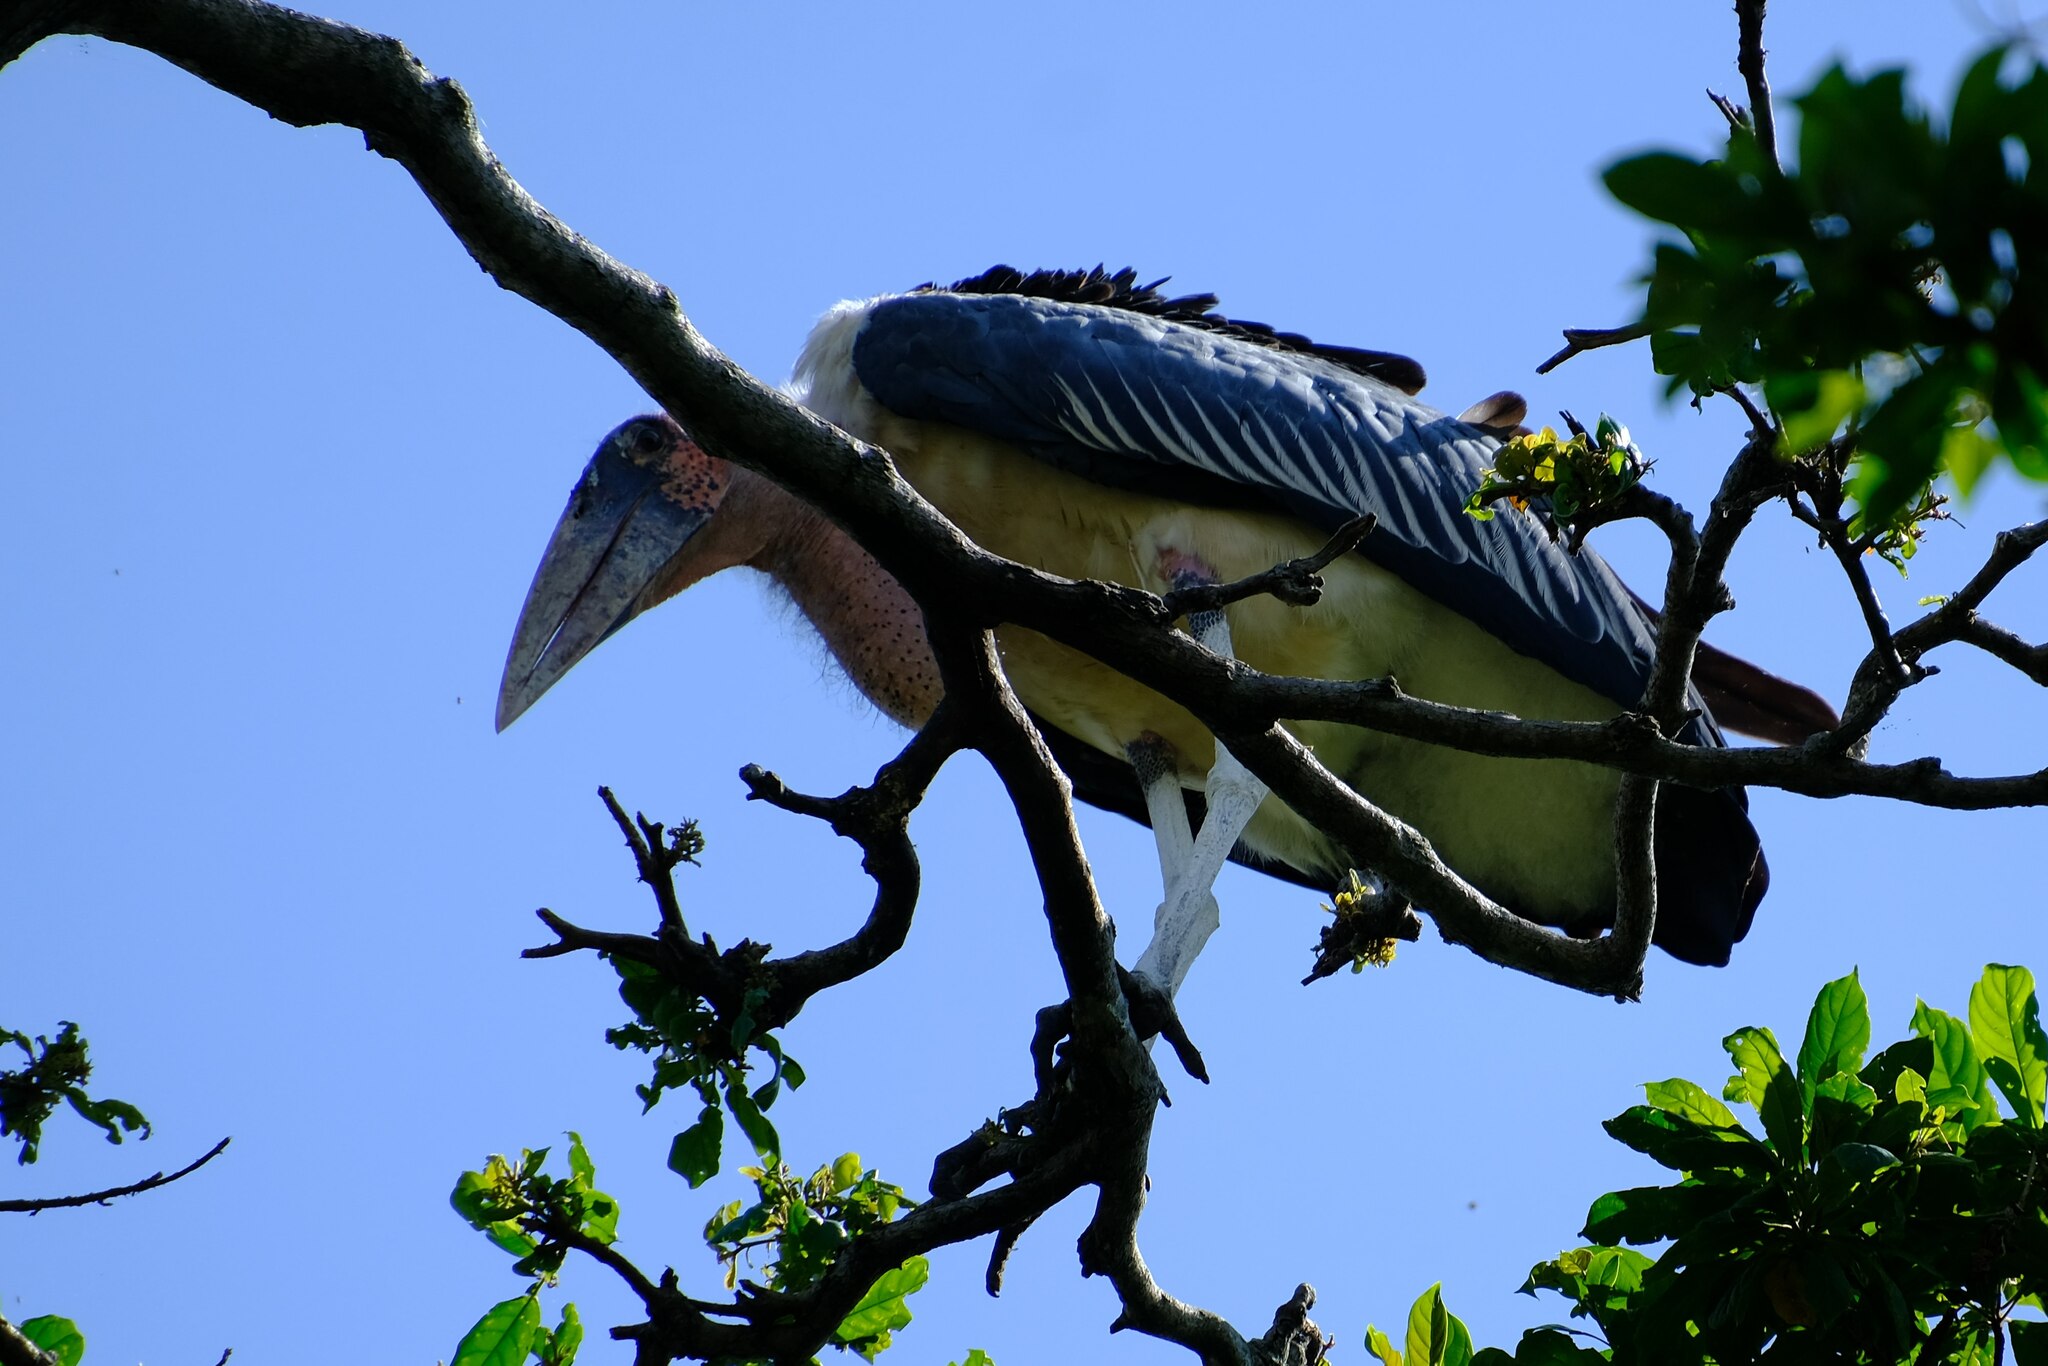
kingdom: Animalia
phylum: Chordata
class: Aves
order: Ciconiiformes
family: Ciconiidae
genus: Leptoptilos
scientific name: Leptoptilos crumenifer
